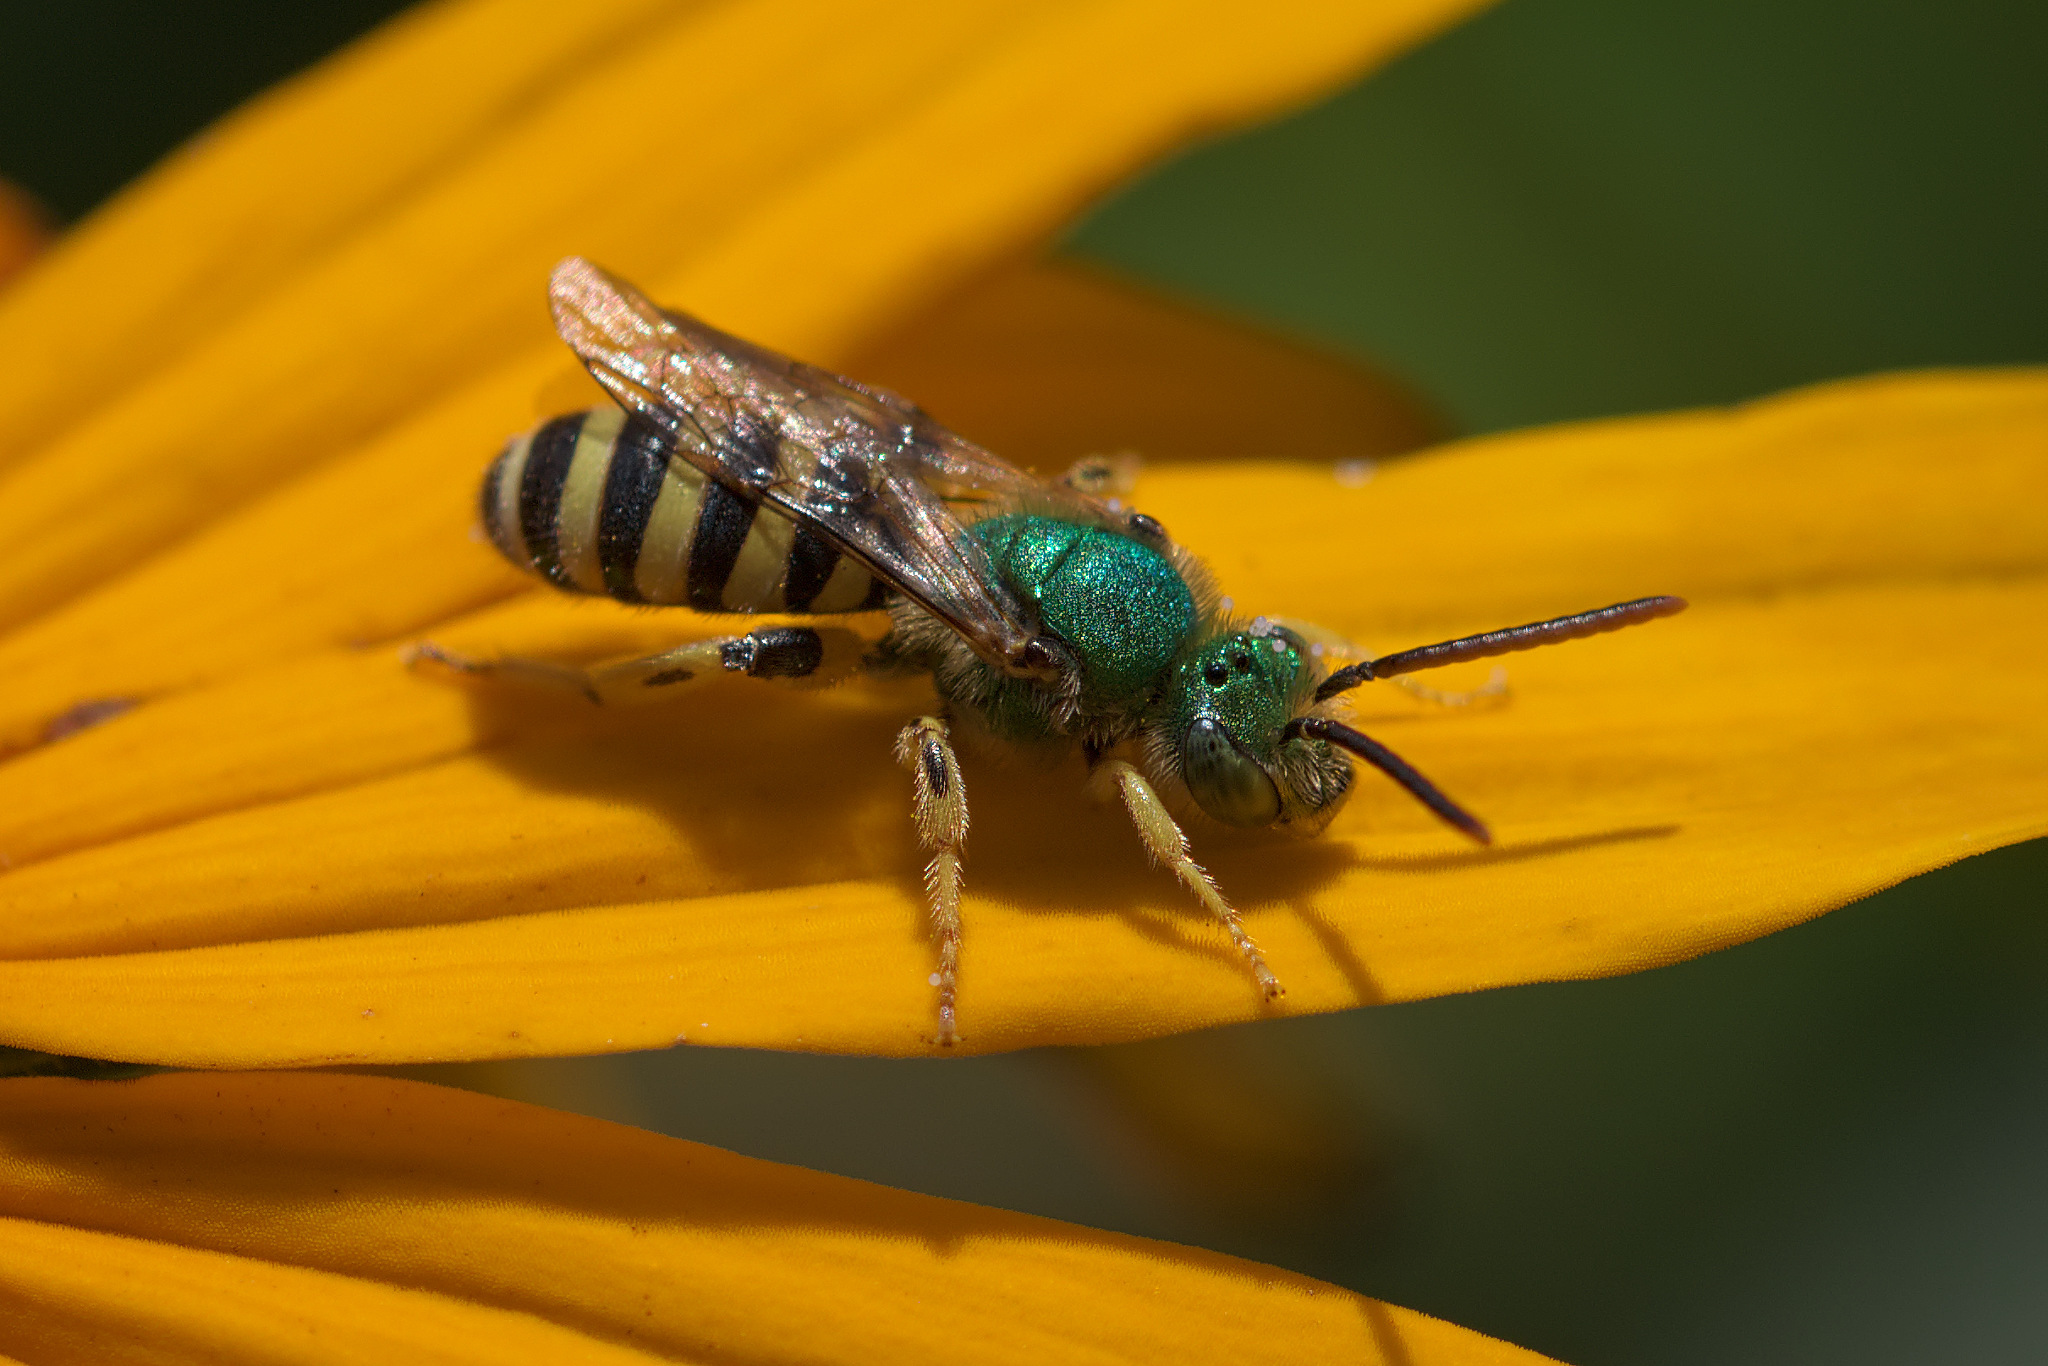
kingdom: Animalia
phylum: Arthropoda
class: Insecta
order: Hymenoptera
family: Halictidae
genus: Agapostemon
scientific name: Agapostemon texanus
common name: Texas striped sweat bee
